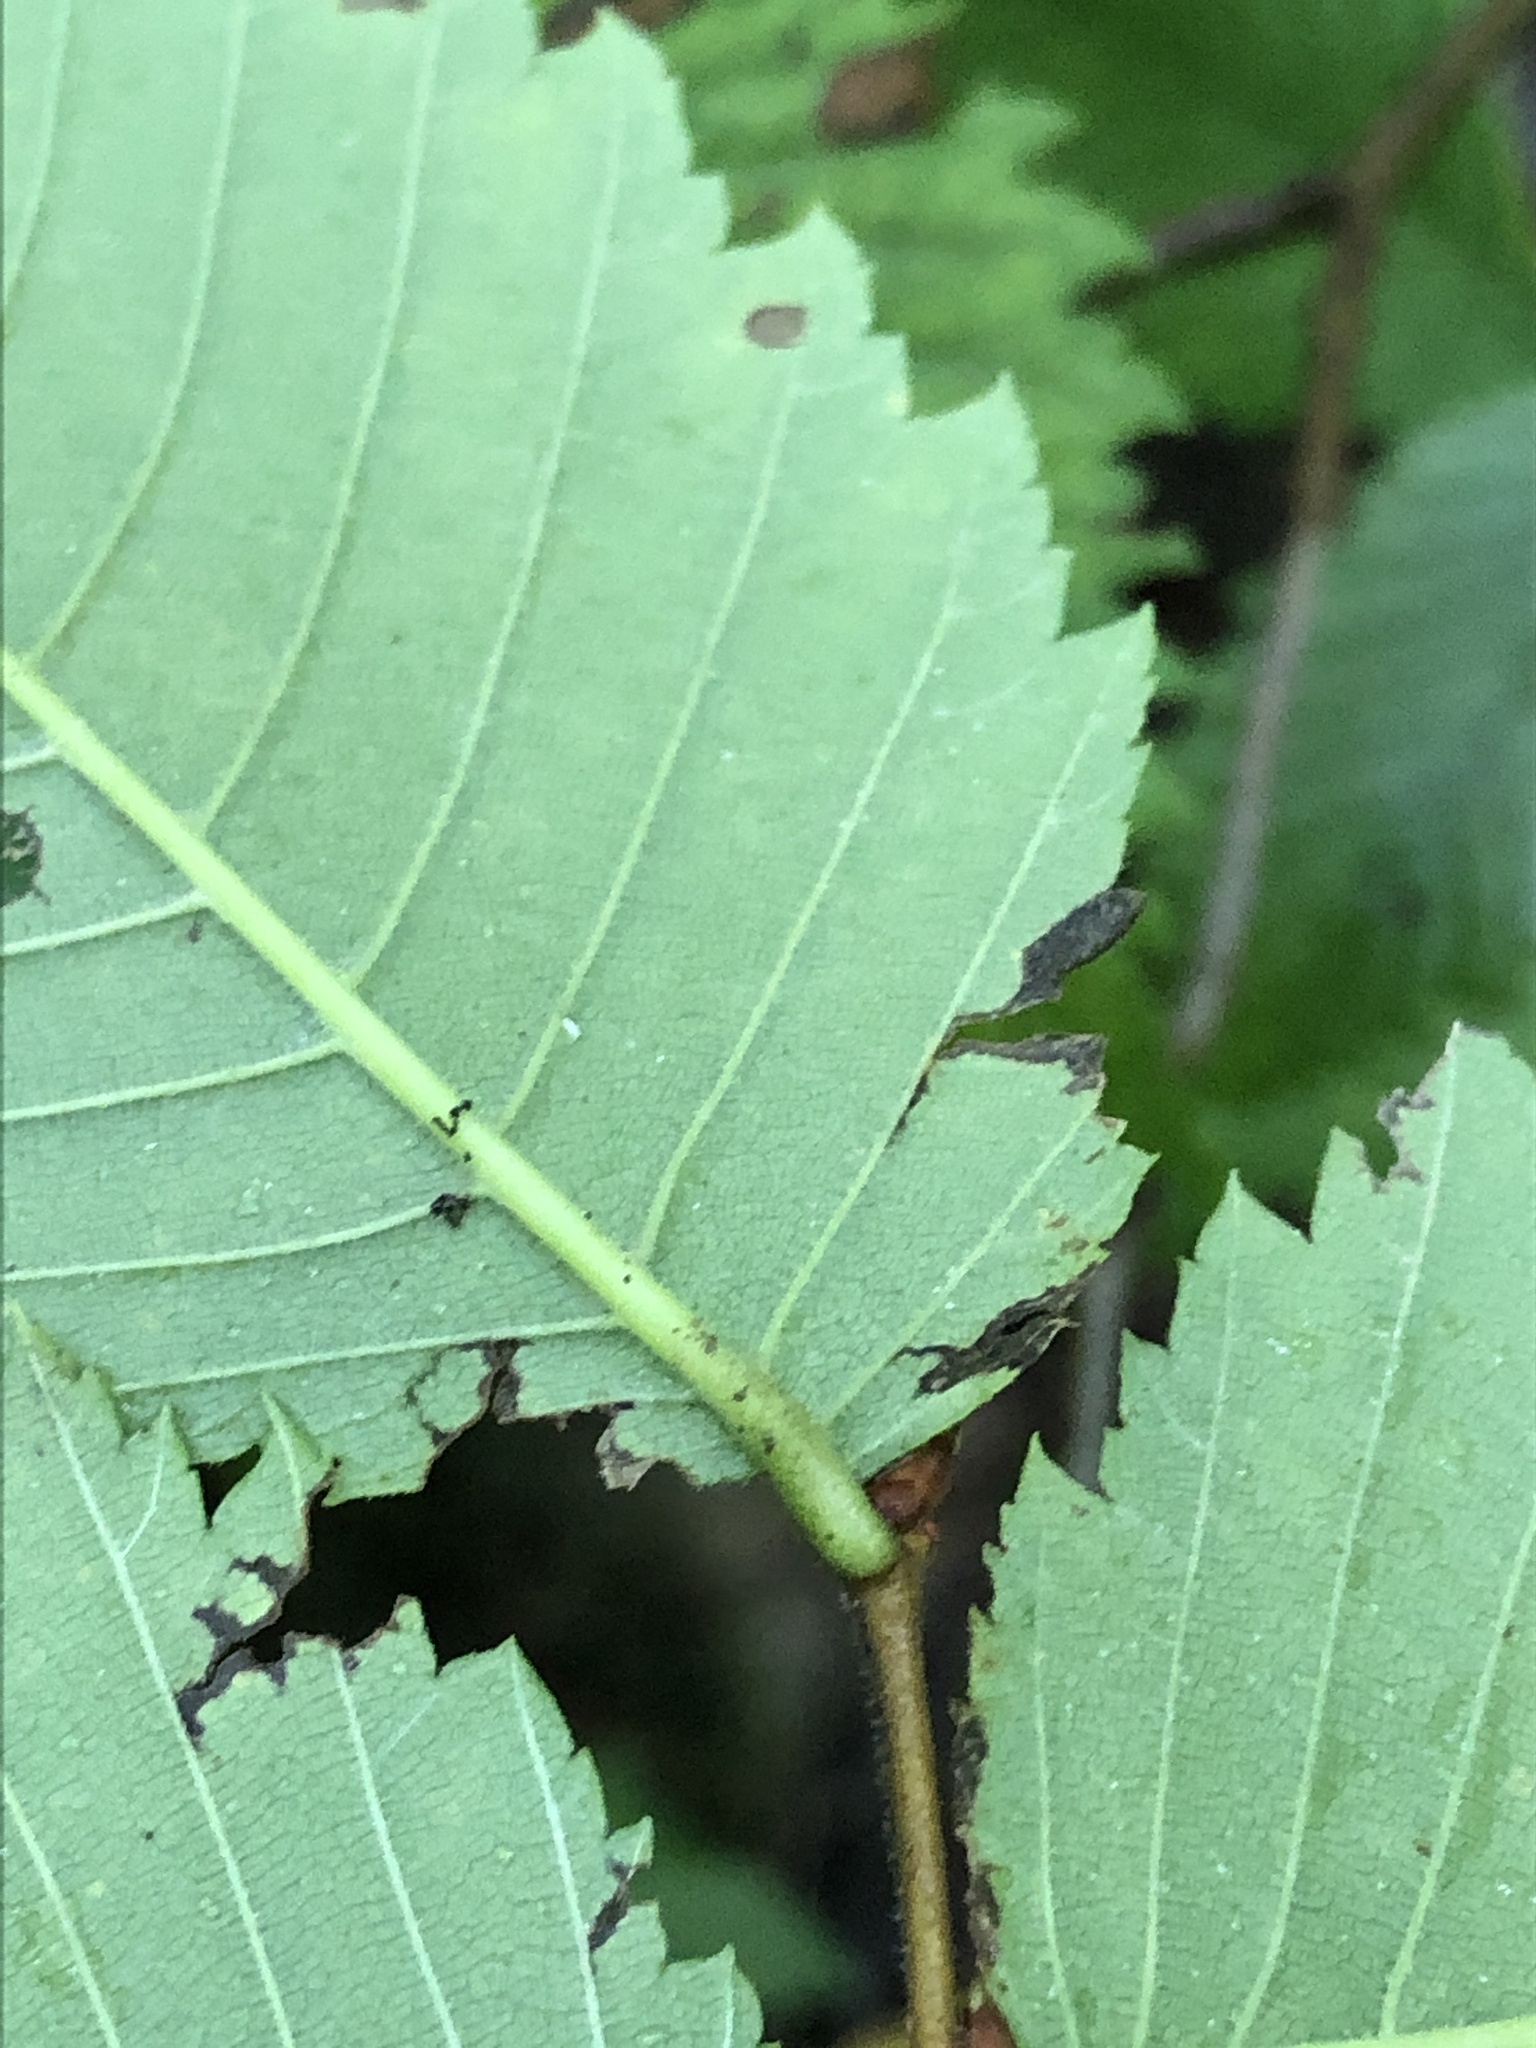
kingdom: Plantae
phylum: Tracheophyta
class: Magnoliopsida
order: Rosales
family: Ulmaceae
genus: Ulmus
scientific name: Ulmus americana
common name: American elm
